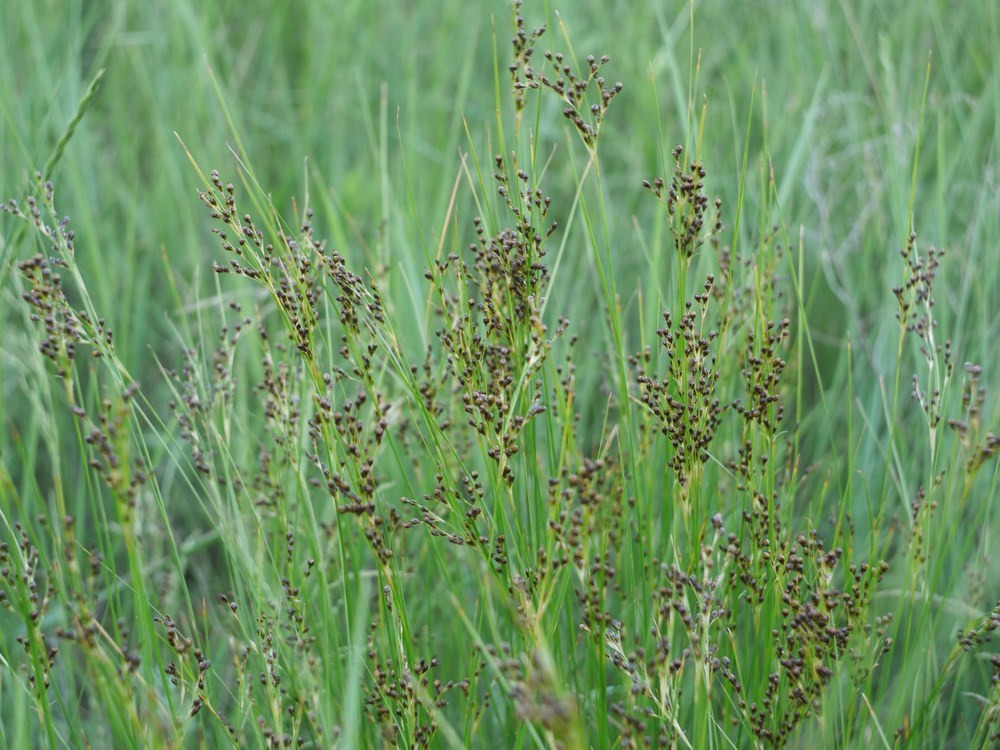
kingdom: Plantae
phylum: Tracheophyta
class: Liliopsida
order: Poales
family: Juncaceae
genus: Juncus
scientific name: Juncus gerardi
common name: Saltmarsh rush
